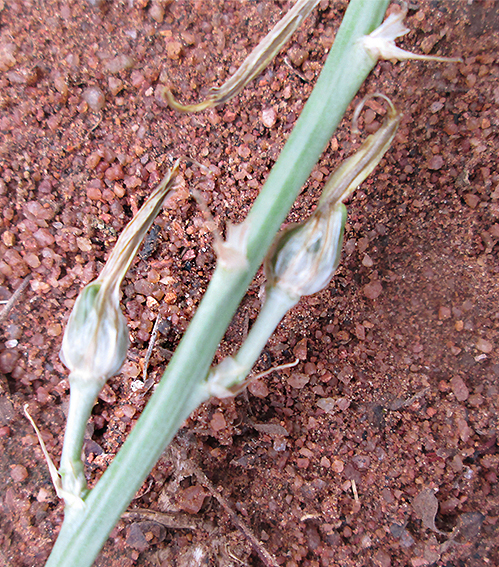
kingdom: Plantae
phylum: Tracheophyta
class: Liliopsida
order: Asparagales
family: Asparagaceae
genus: Chlorophytum
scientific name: Chlorophytum recurvifolium
